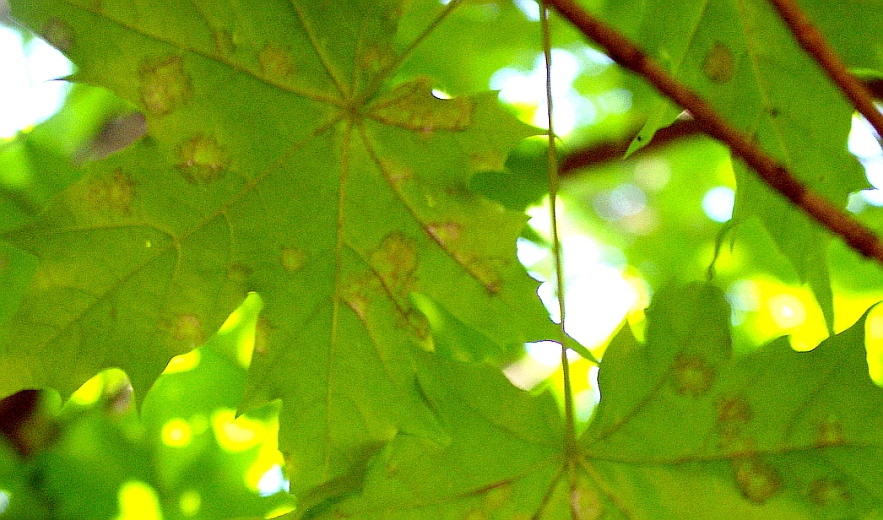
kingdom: Fungi
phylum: Ascomycota
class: Leotiomycetes
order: Rhytismatales
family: Rhytismataceae
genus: Rhytisma
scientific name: Rhytisma acerinum
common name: European tar spot
